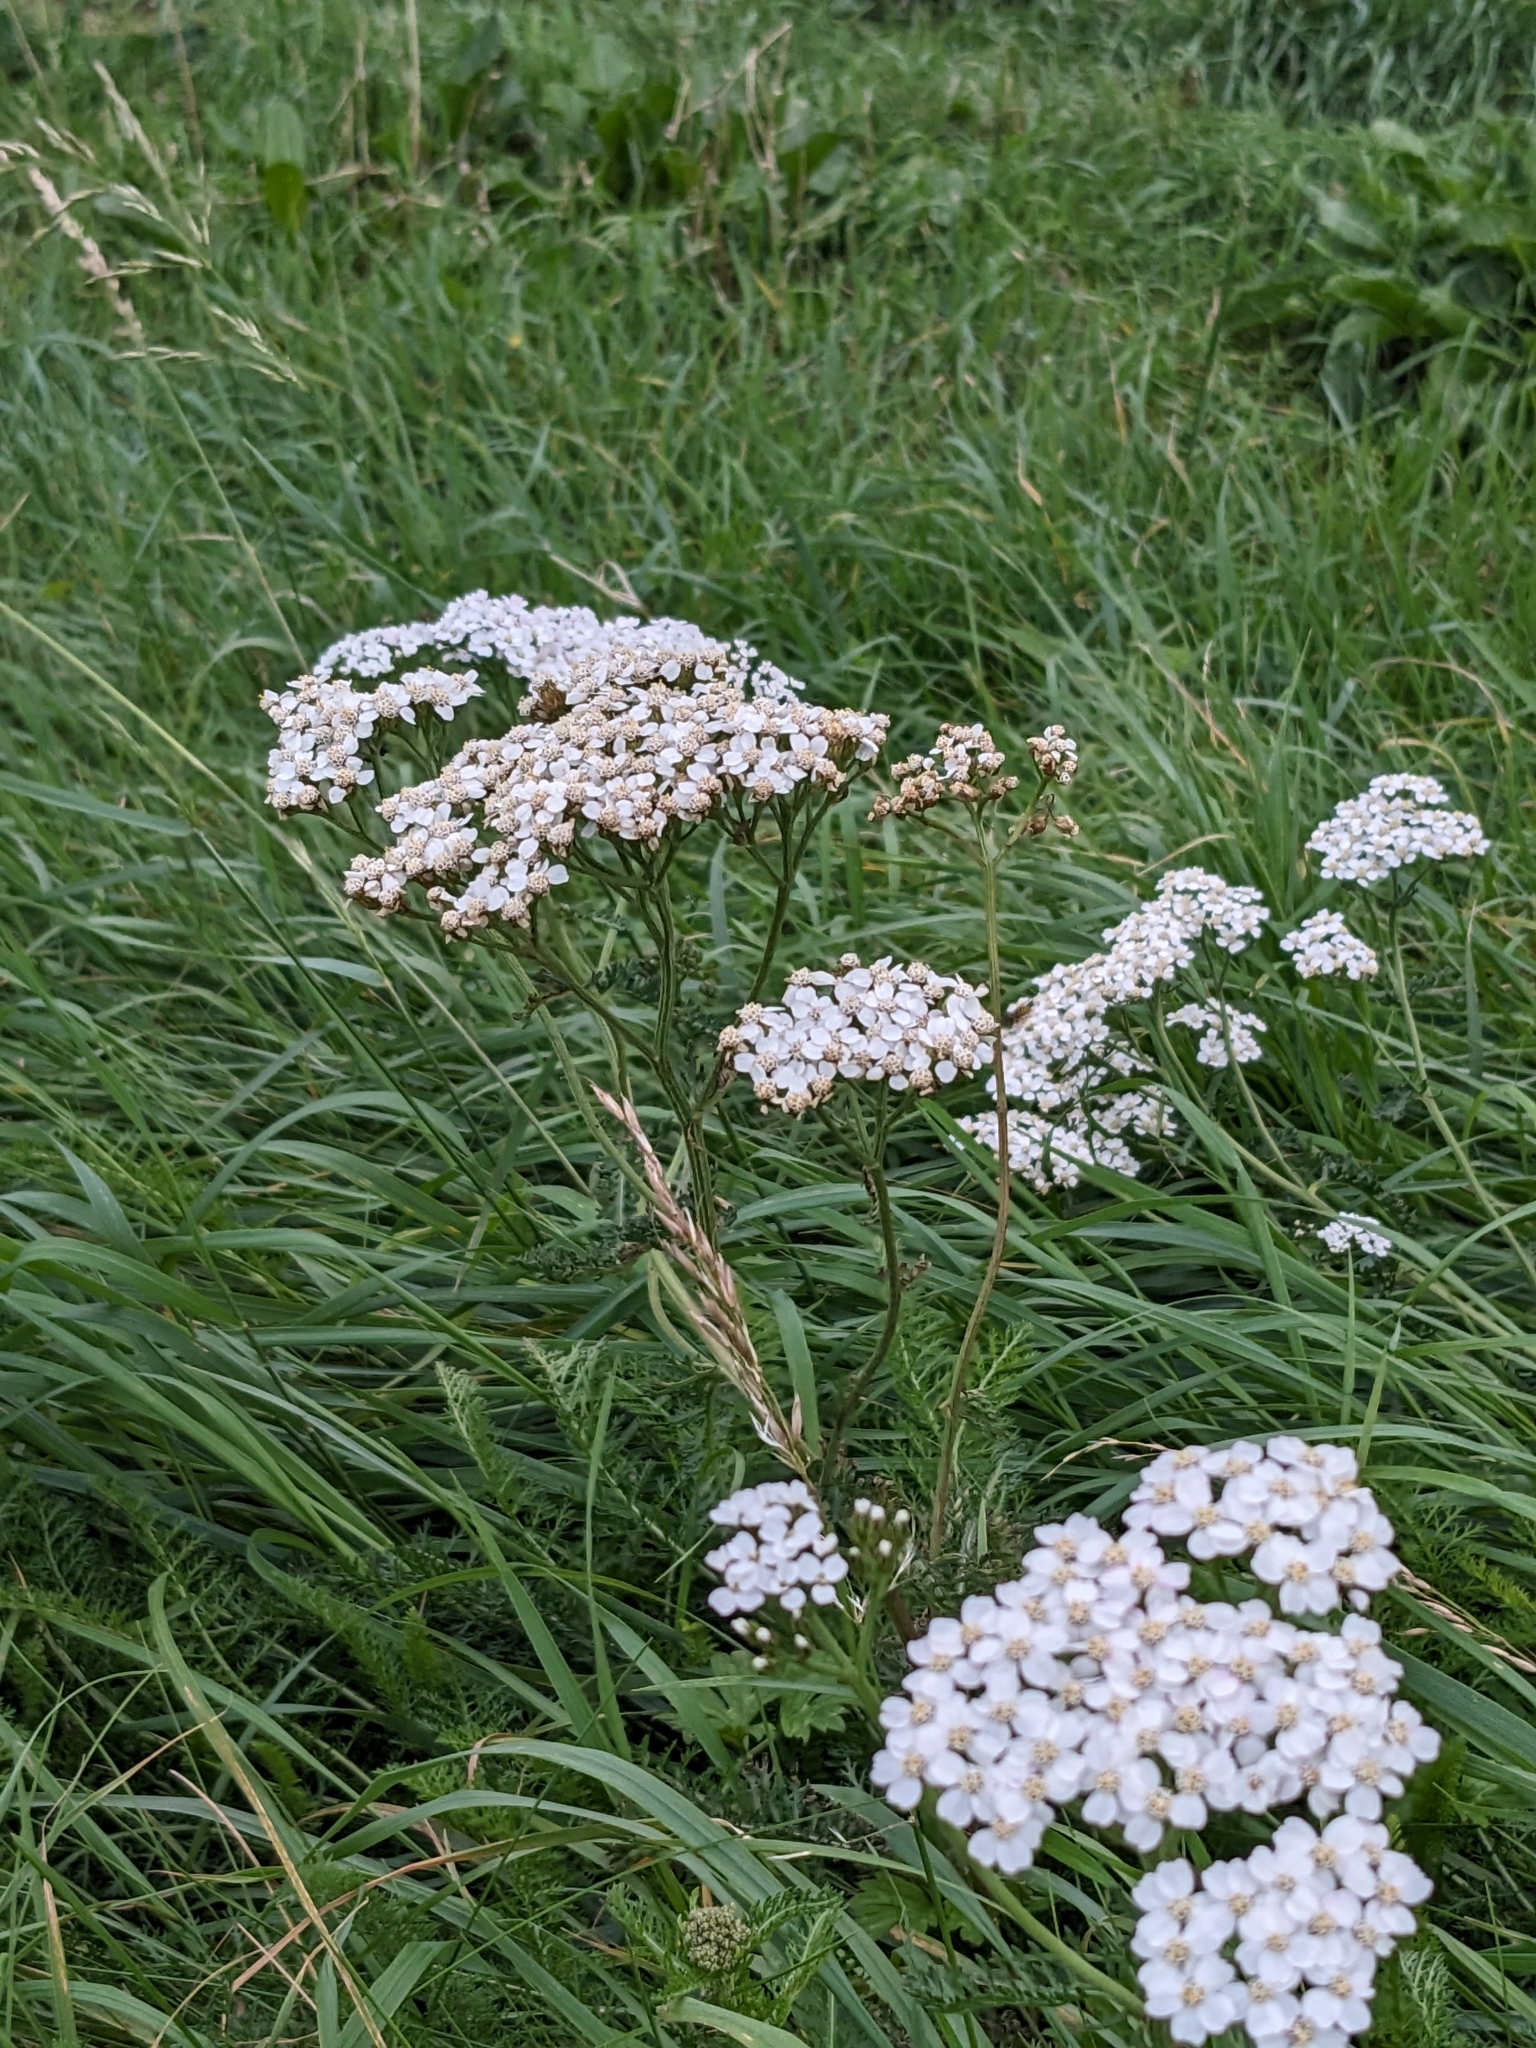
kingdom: Plantae
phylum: Tracheophyta
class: Magnoliopsida
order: Asterales
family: Asteraceae
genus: Achillea
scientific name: Achillea millefolium
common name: Yarrow
